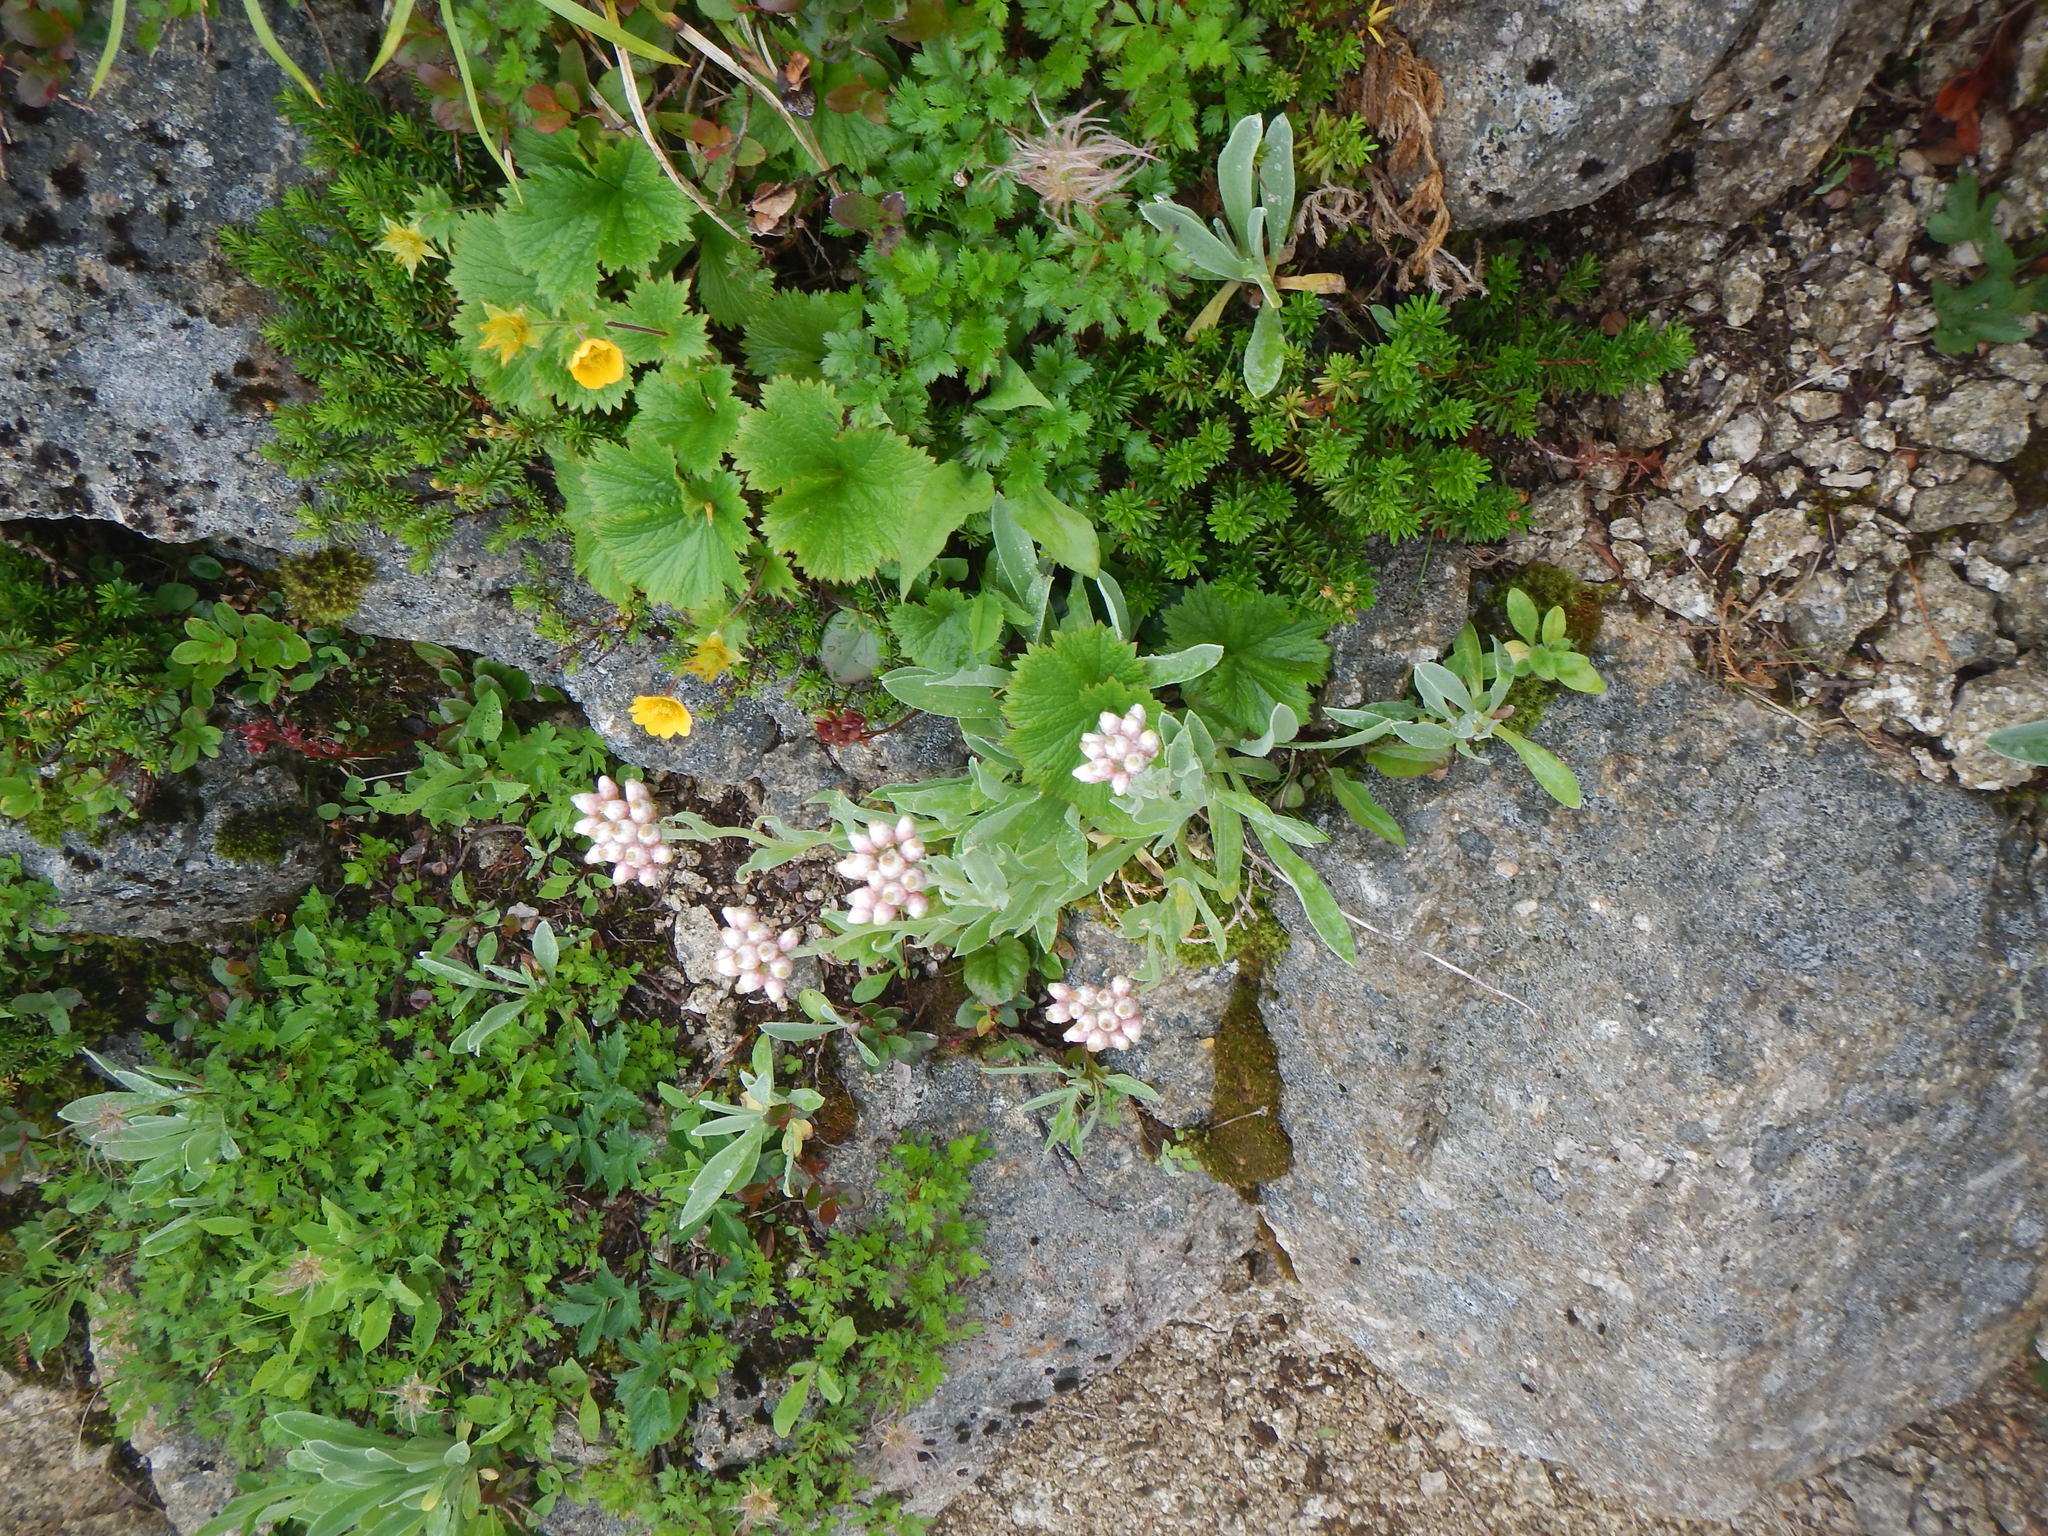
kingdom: Plantae
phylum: Tracheophyta
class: Magnoliopsida
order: Asterales
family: Asteraceae
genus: Anaphalis
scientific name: Anaphalis alpicola
